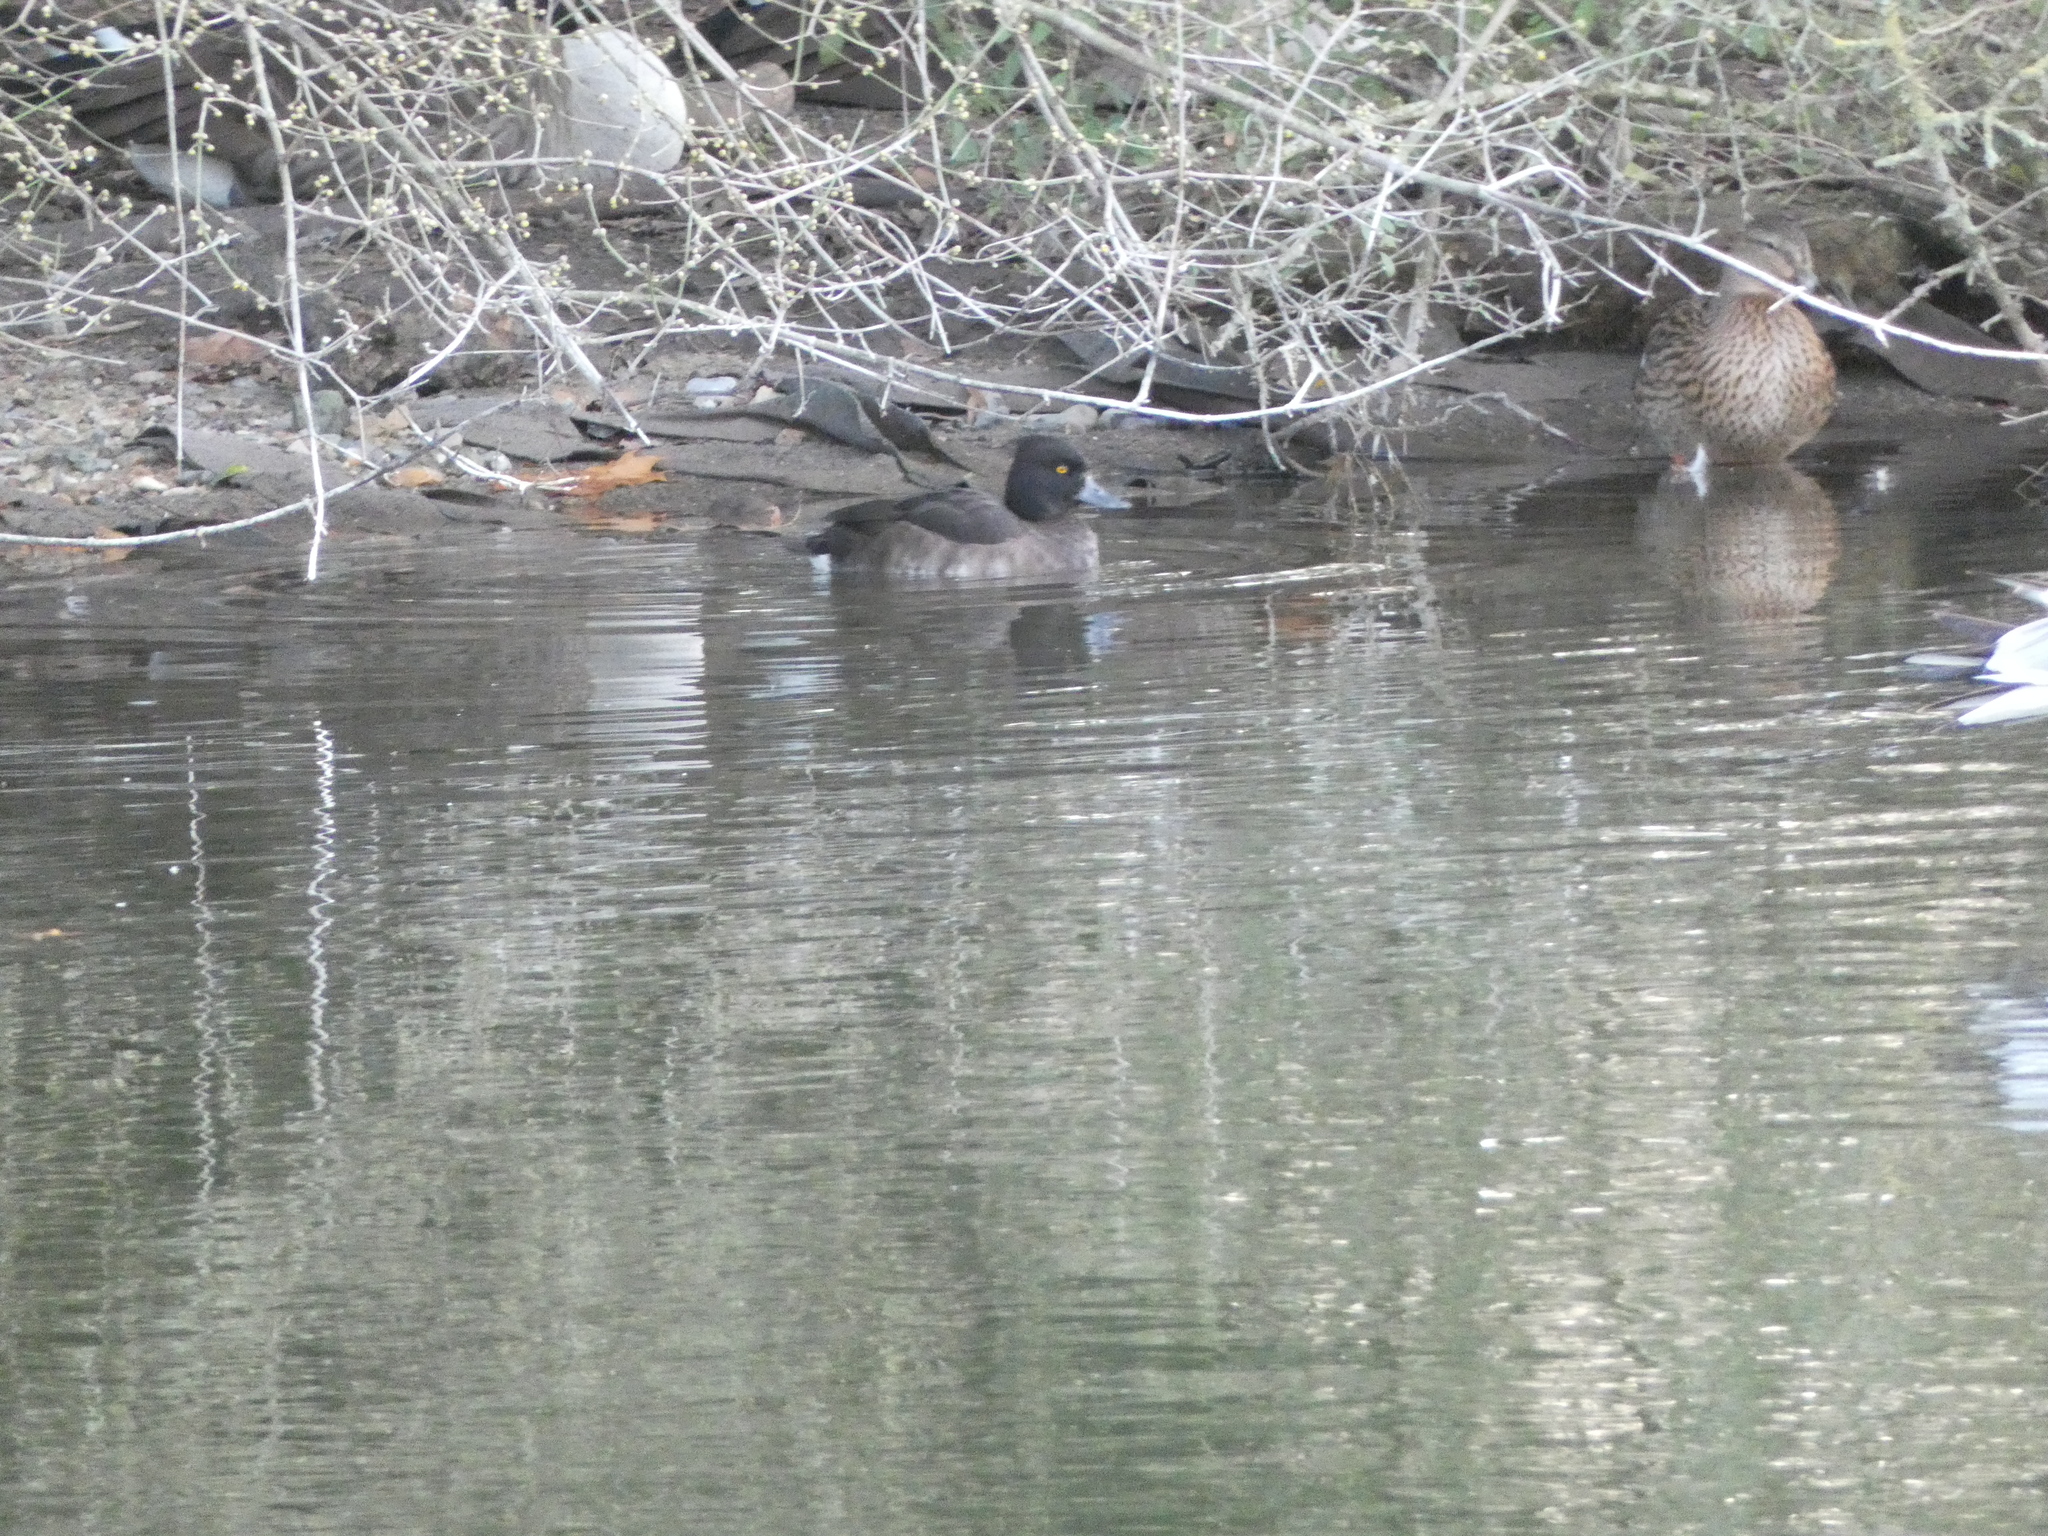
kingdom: Animalia
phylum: Chordata
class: Aves
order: Anseriformes
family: Anatidae
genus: Aythya
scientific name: Aythya fuligula
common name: Tufted duck
